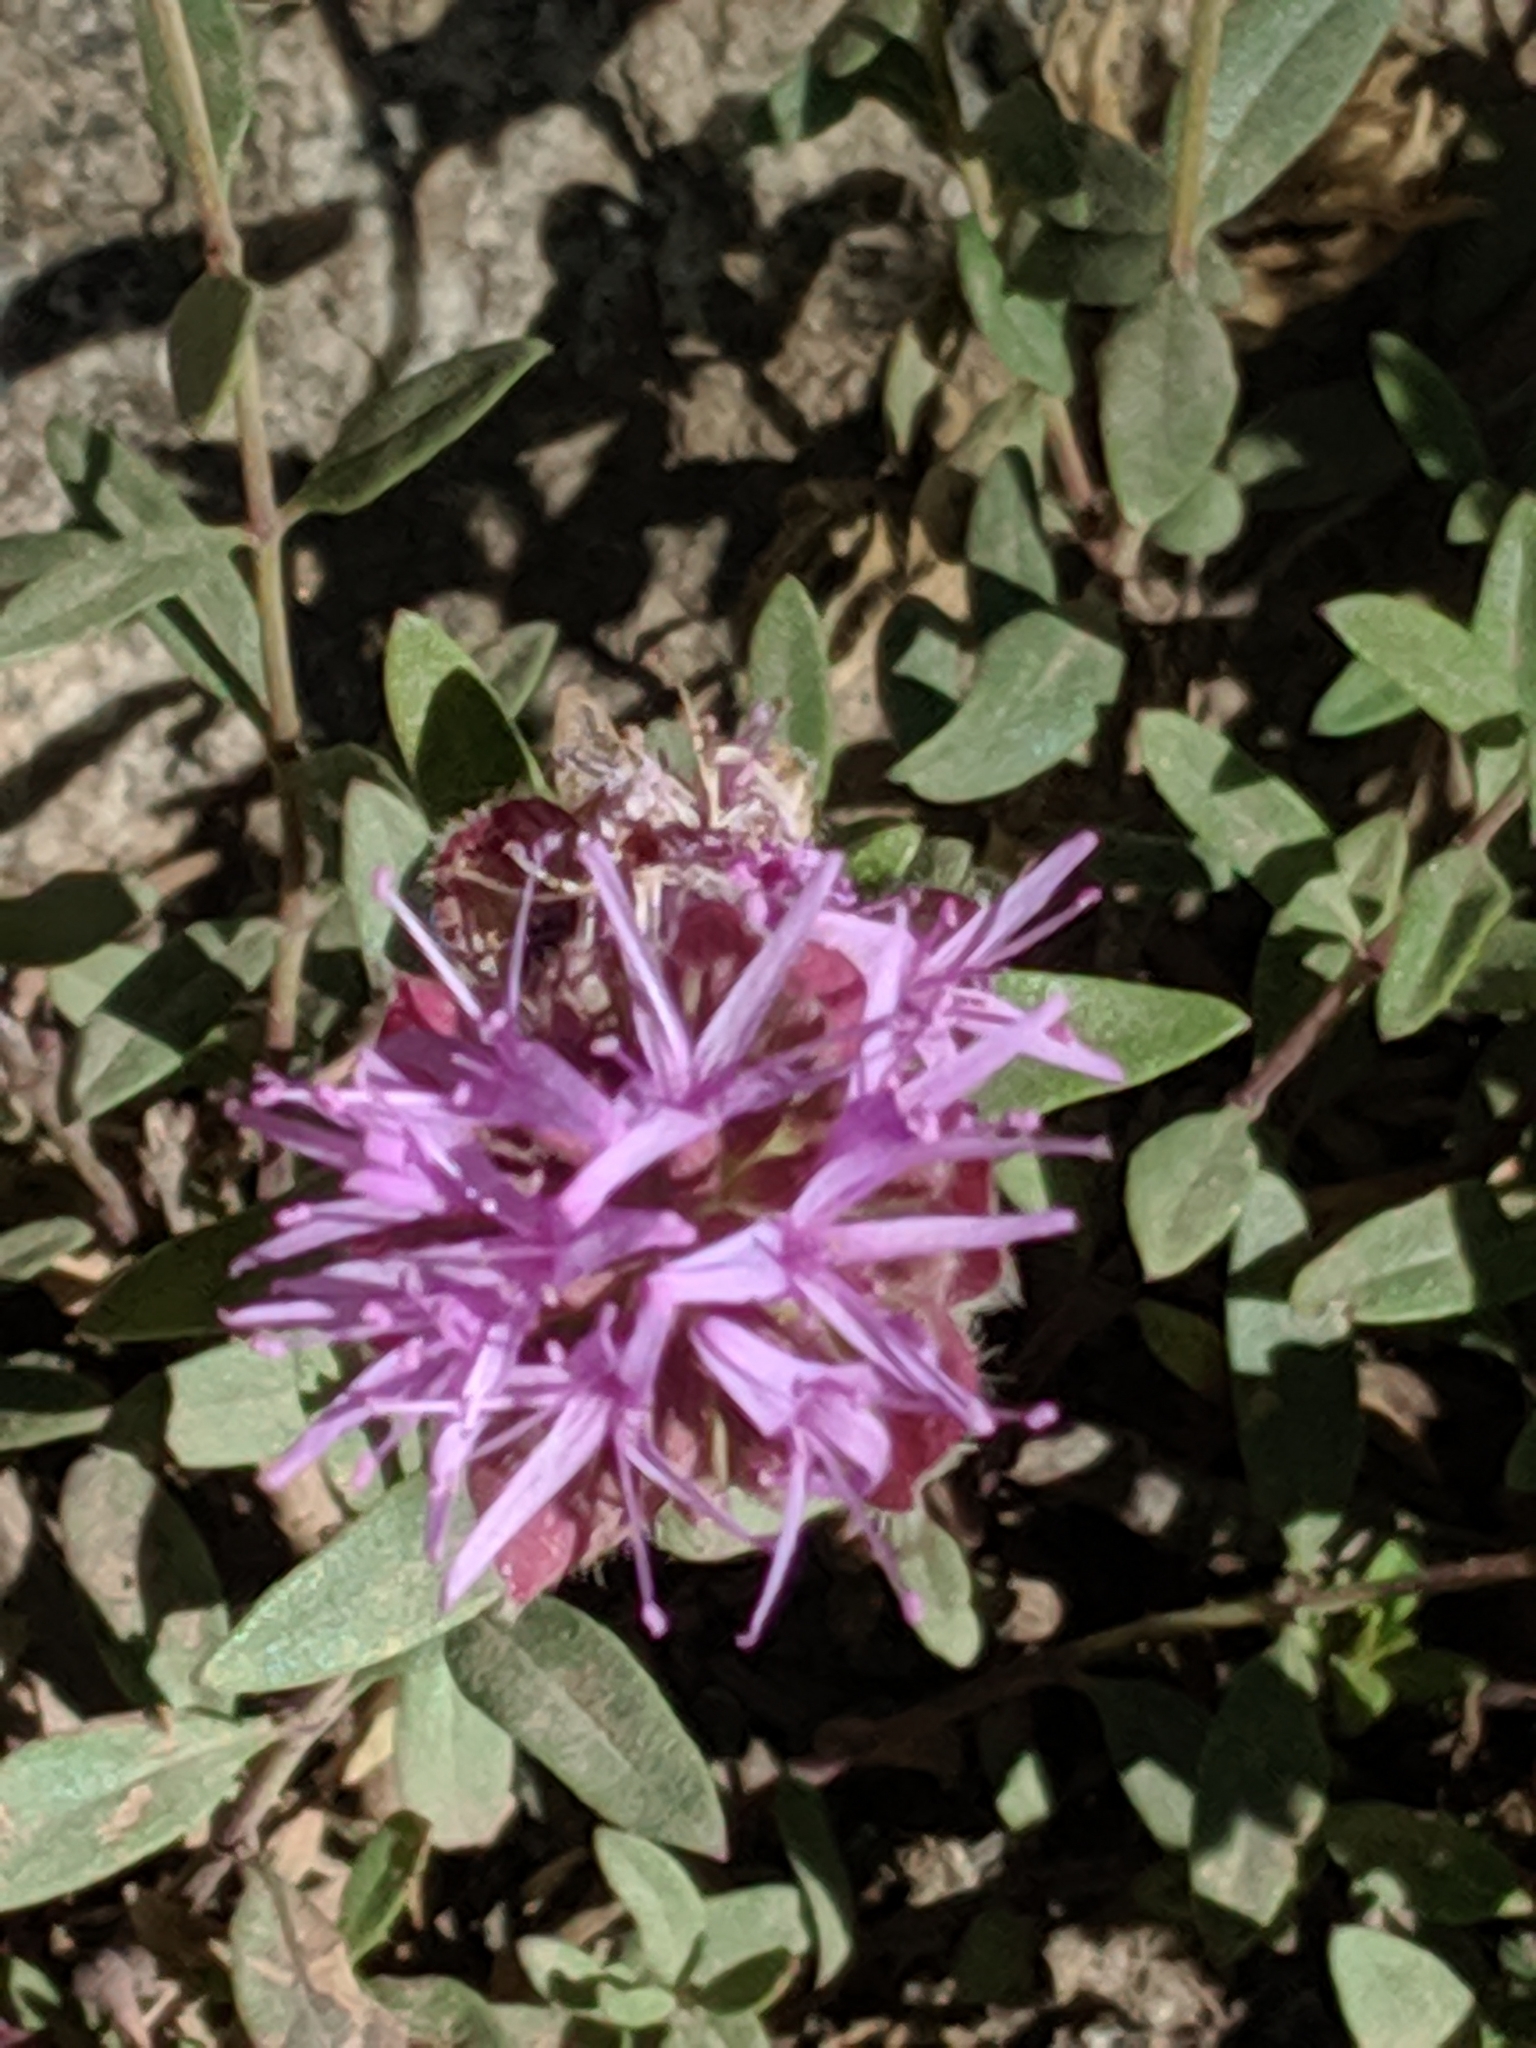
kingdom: Plantae
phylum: Tracheophyta
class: Magnoliopsida
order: Lamiales
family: Lamiaceae
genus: Monardella
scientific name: Monardella odoratissima
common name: Pacific monardella
